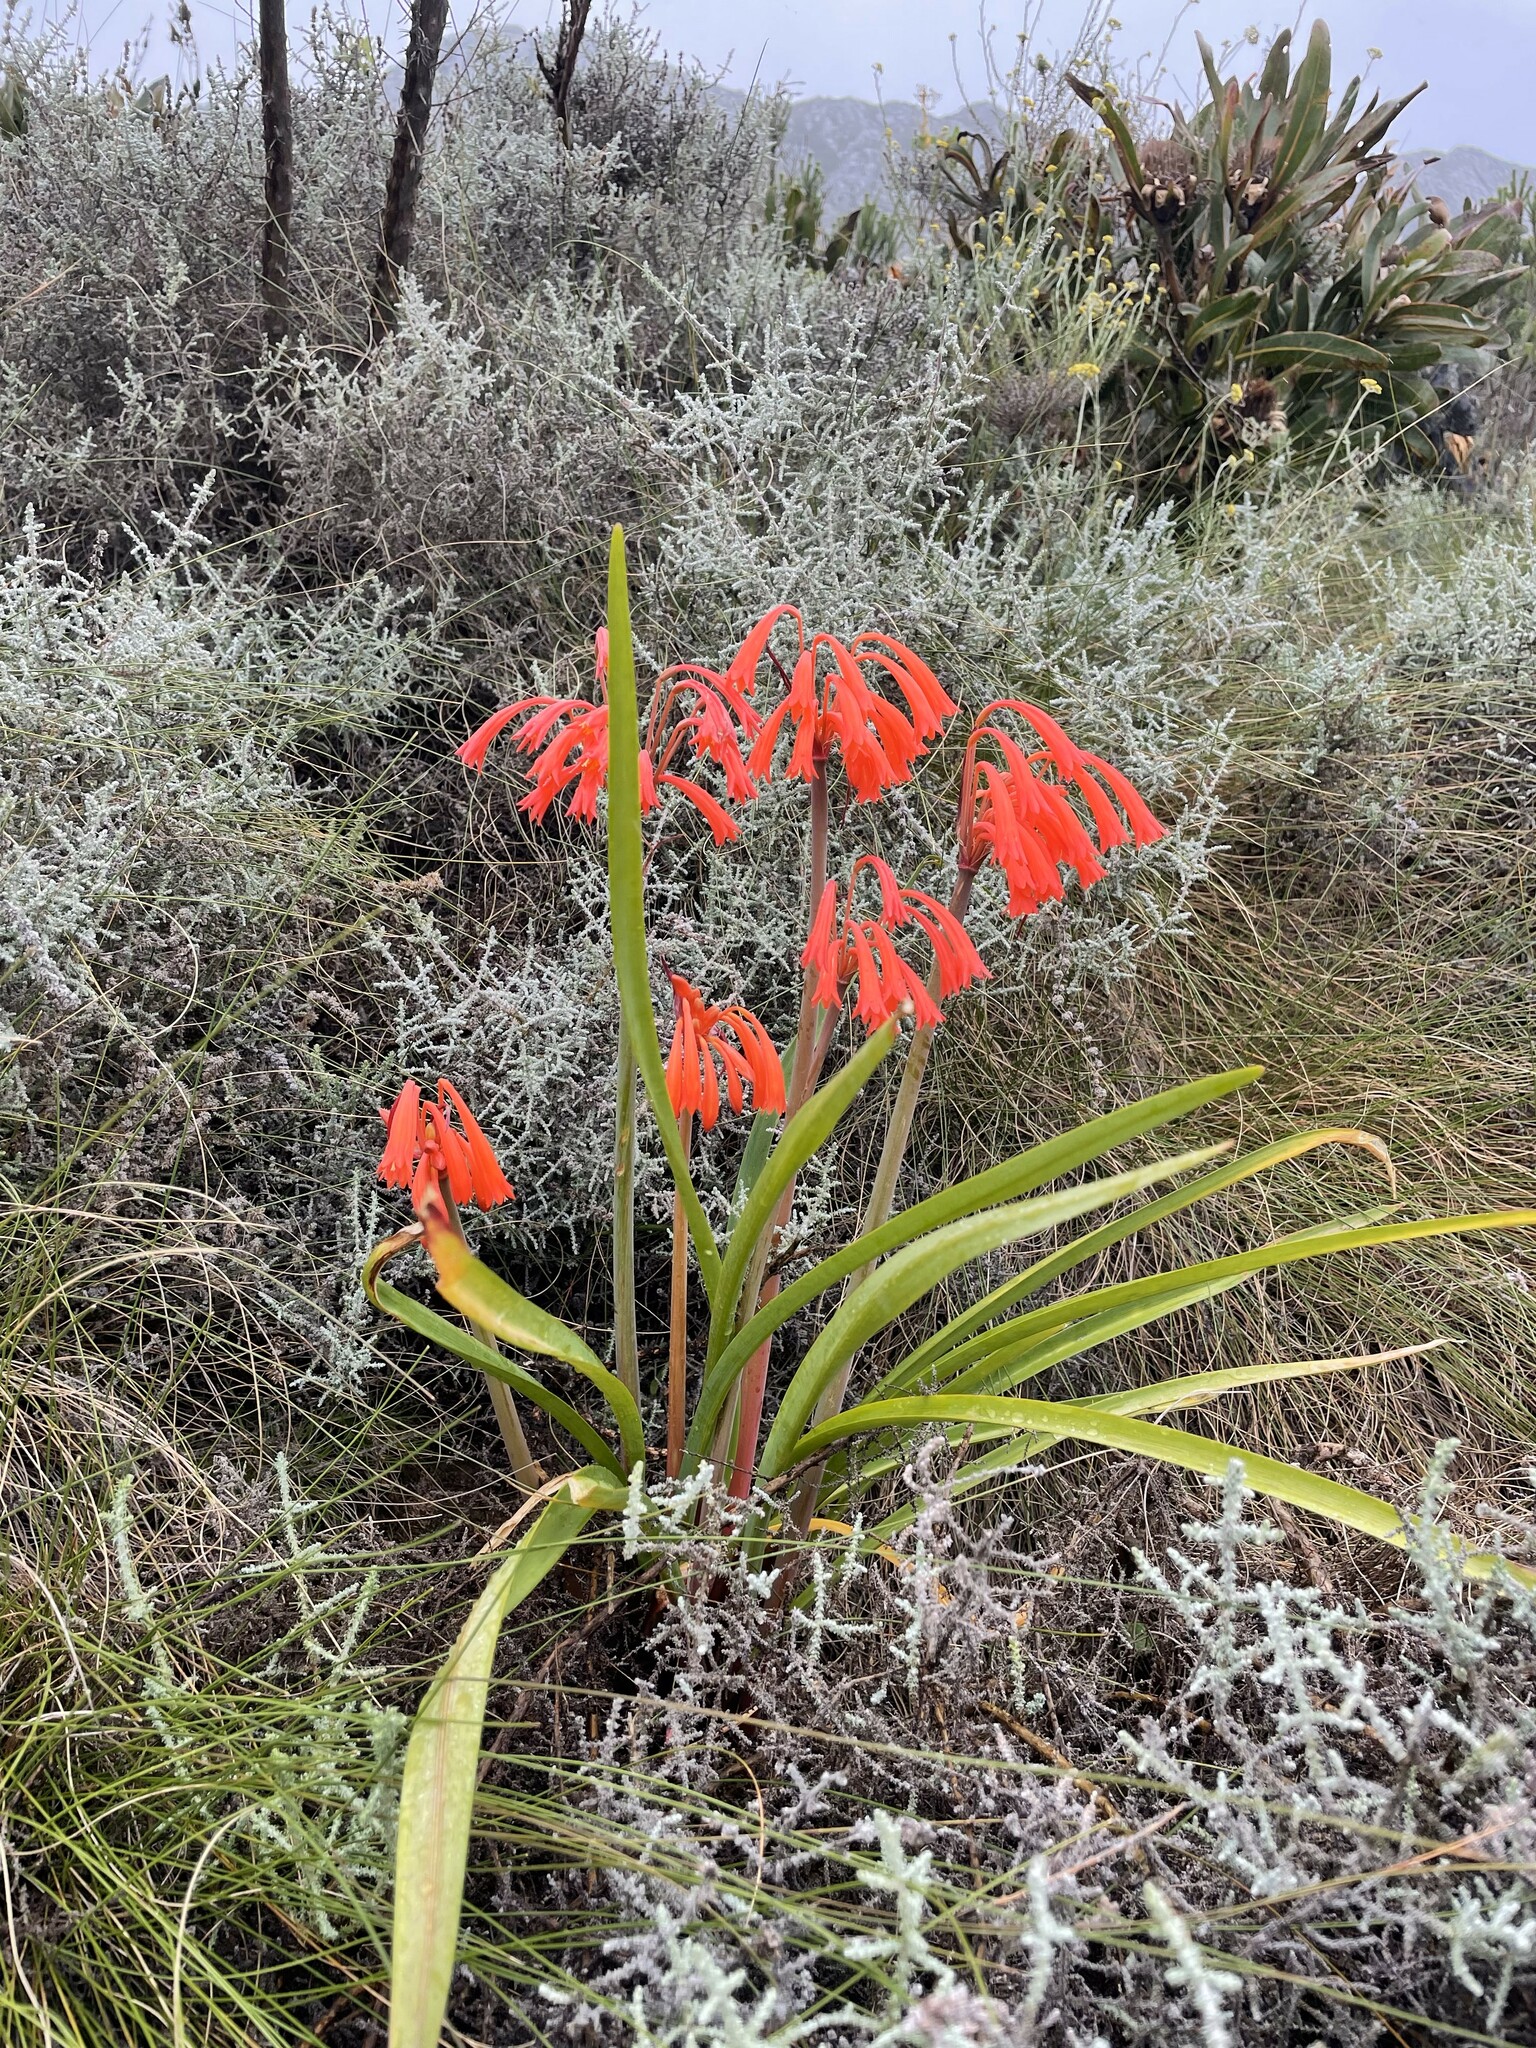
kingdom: Plantae
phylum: Tracheophyta
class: Liliopsida
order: Asparagales
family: Amaryllidaceae
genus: Cyrtanthus
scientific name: Cyrtanthus angustifolius
